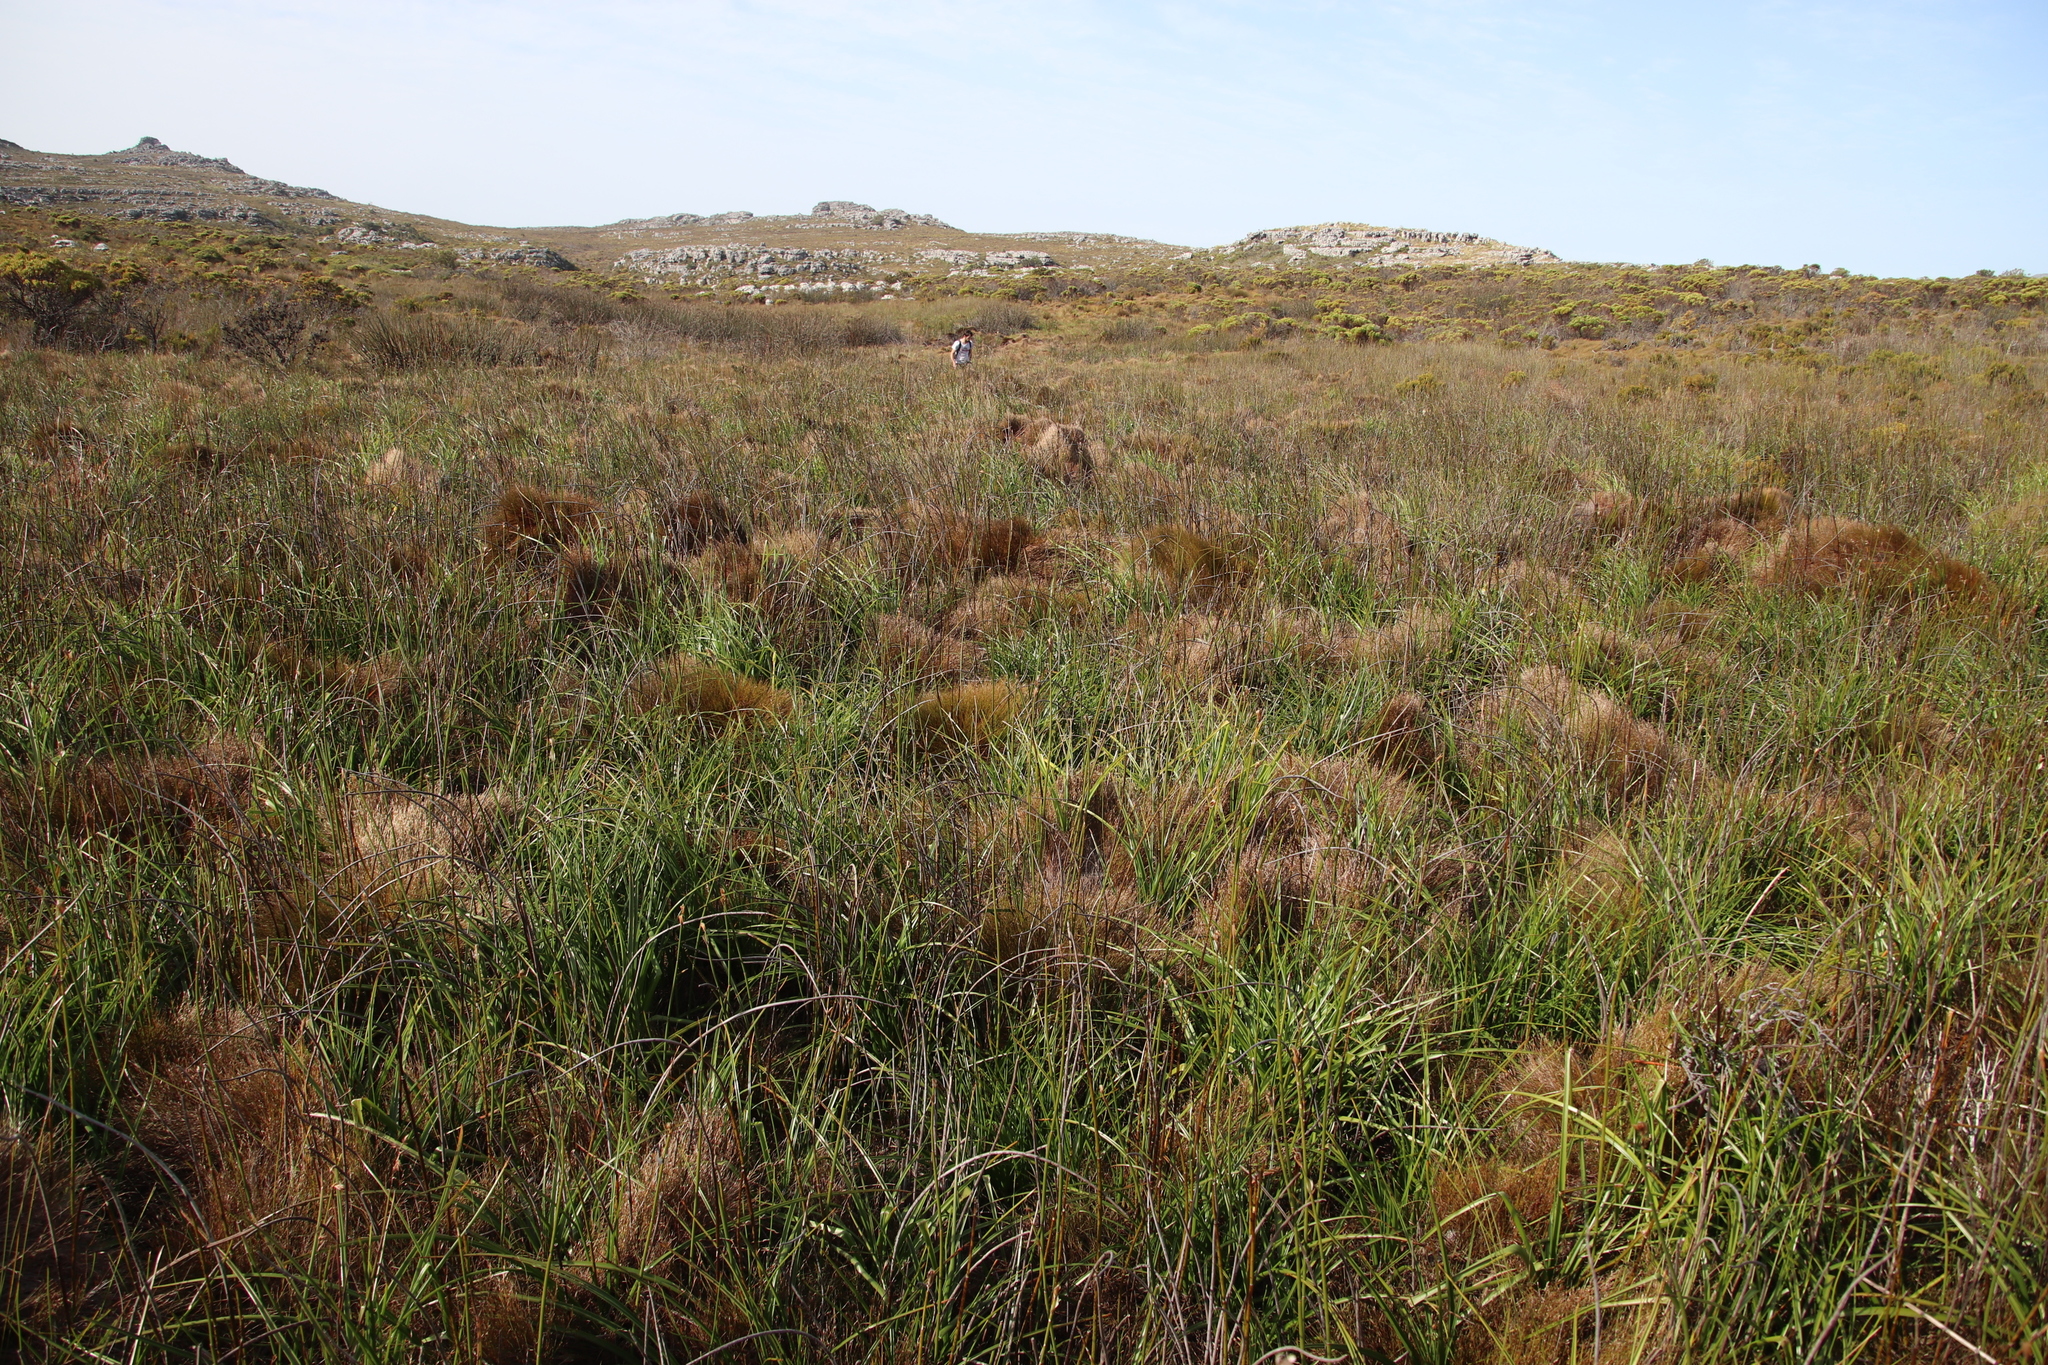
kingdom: Plantae
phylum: Tracheophyta
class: Liliopsida
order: Poales
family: Restionaceae
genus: Elegia
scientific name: Elegia mucronata
